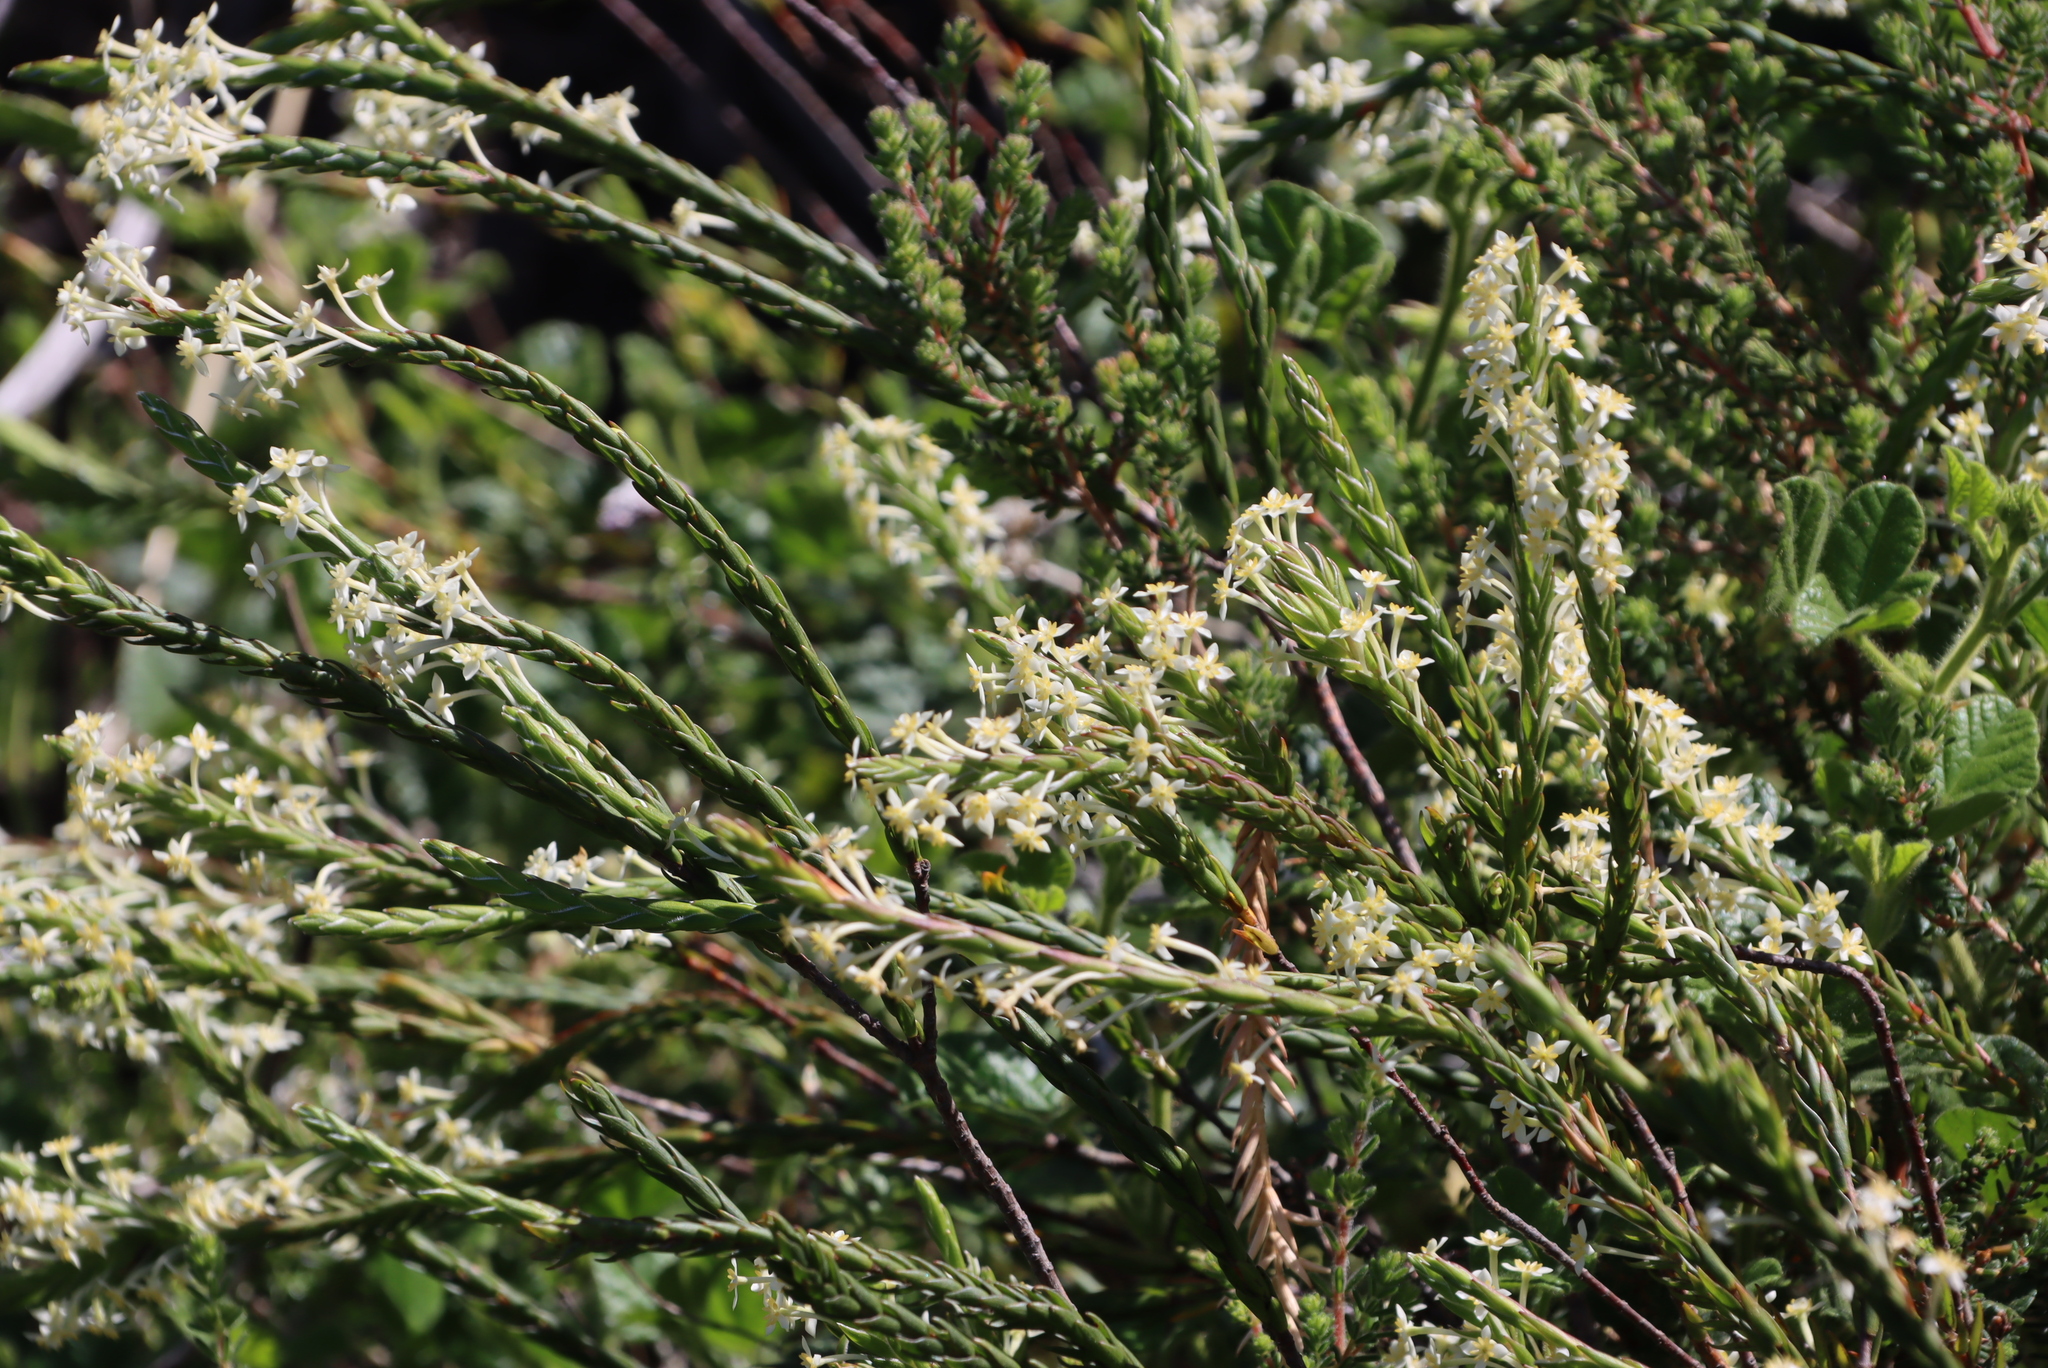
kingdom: Plantae
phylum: Tracheophyta
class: Magnoliopsida
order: Malvales
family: Thymelaeaceae
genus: Struthiola
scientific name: Struthiola ciliata
